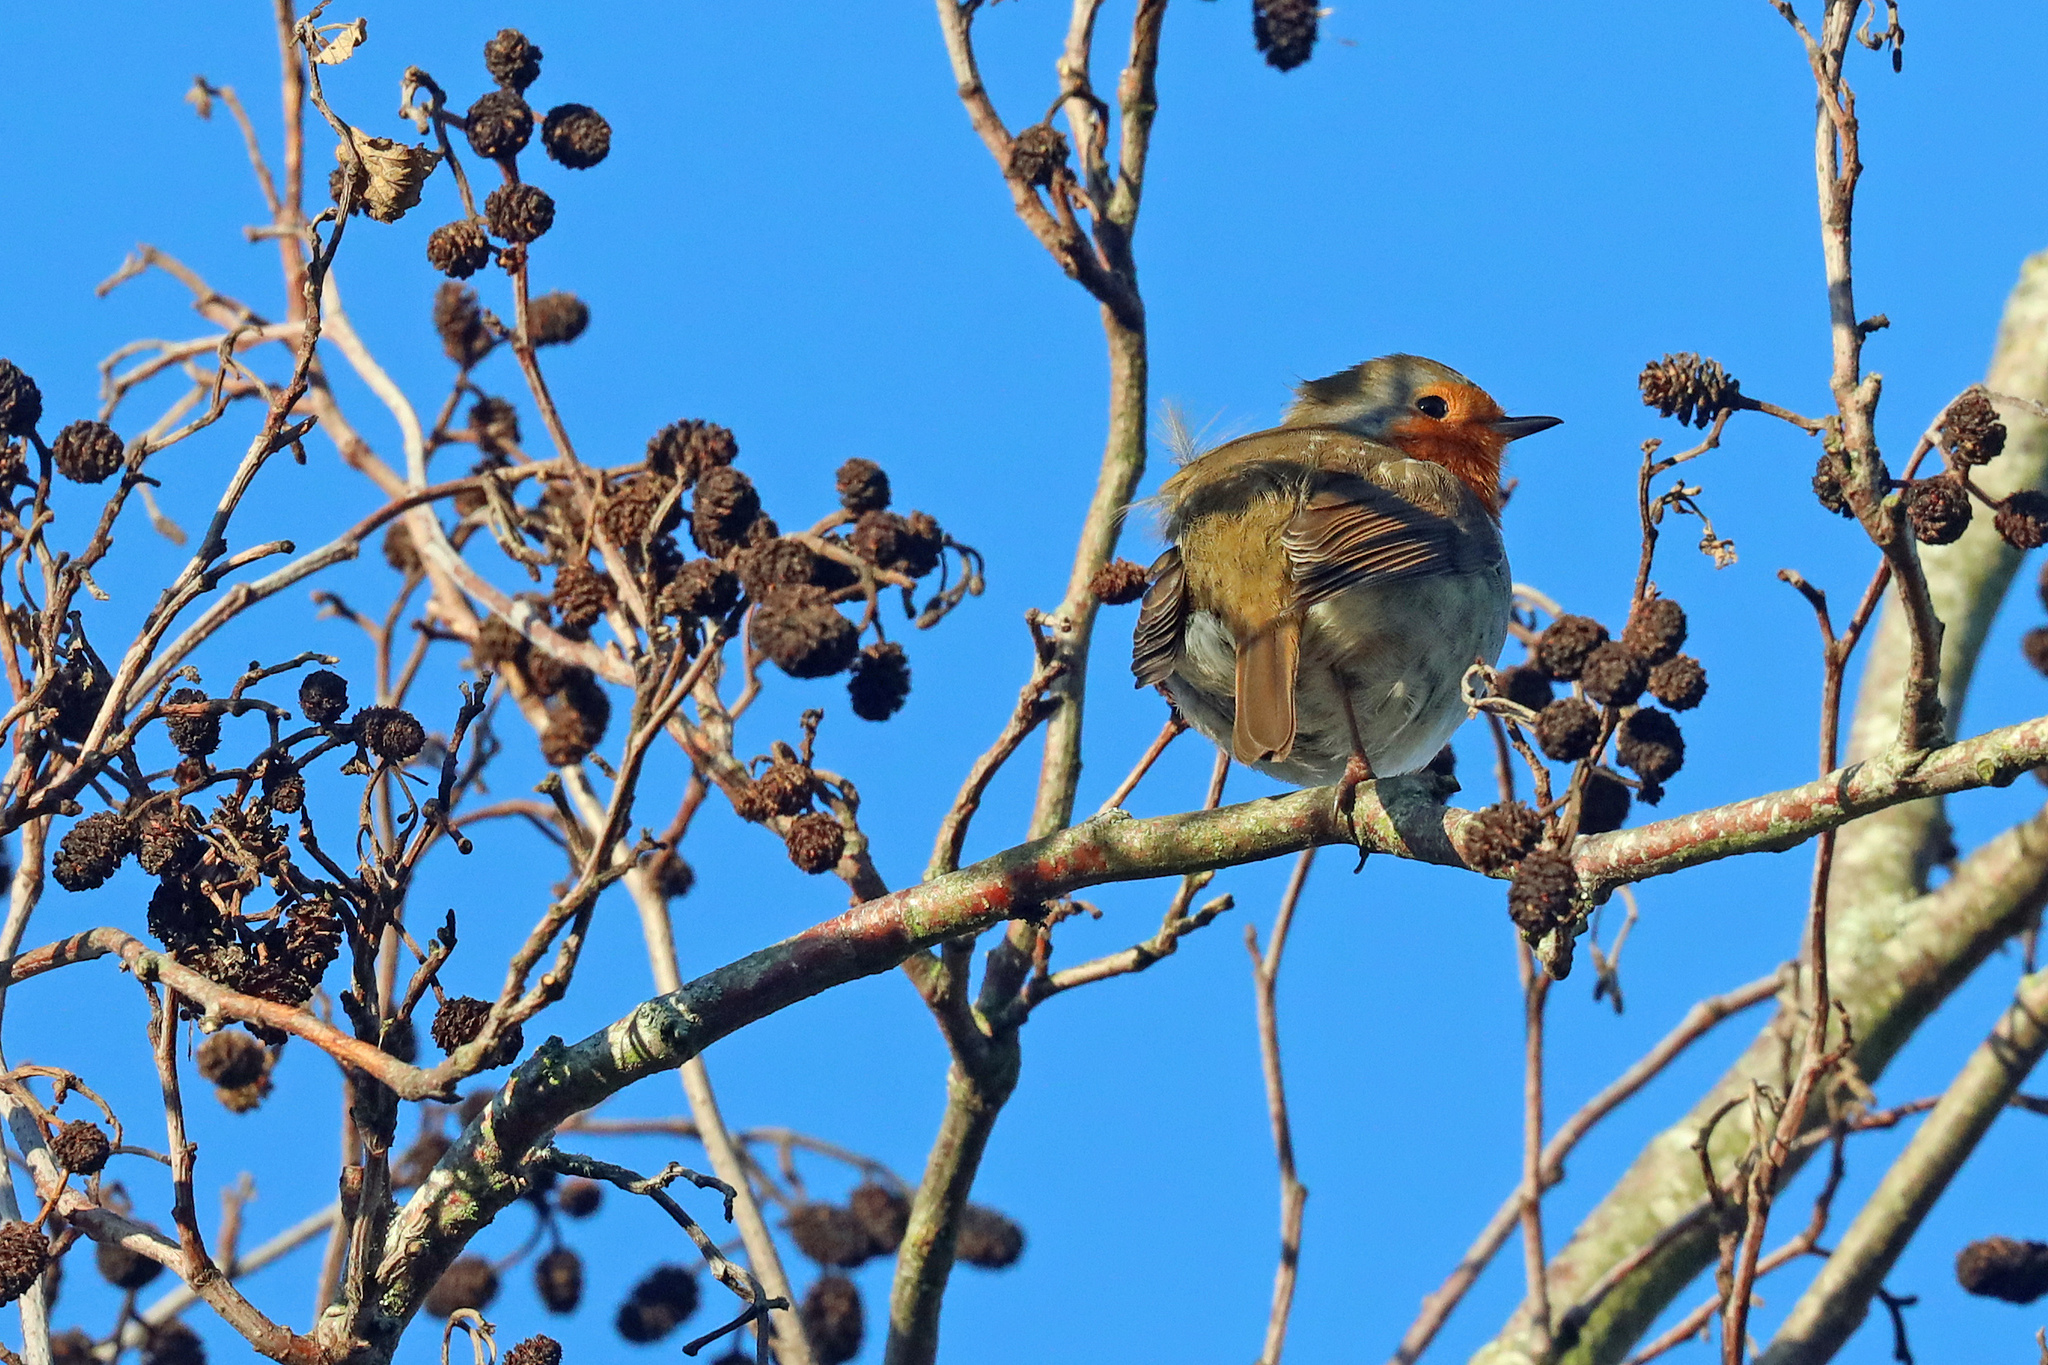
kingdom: Animalia
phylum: Chordata
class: Aves
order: Passeriformes
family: Muscicapidae
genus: Erithacus
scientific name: Erithacus rubecula
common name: European robin
